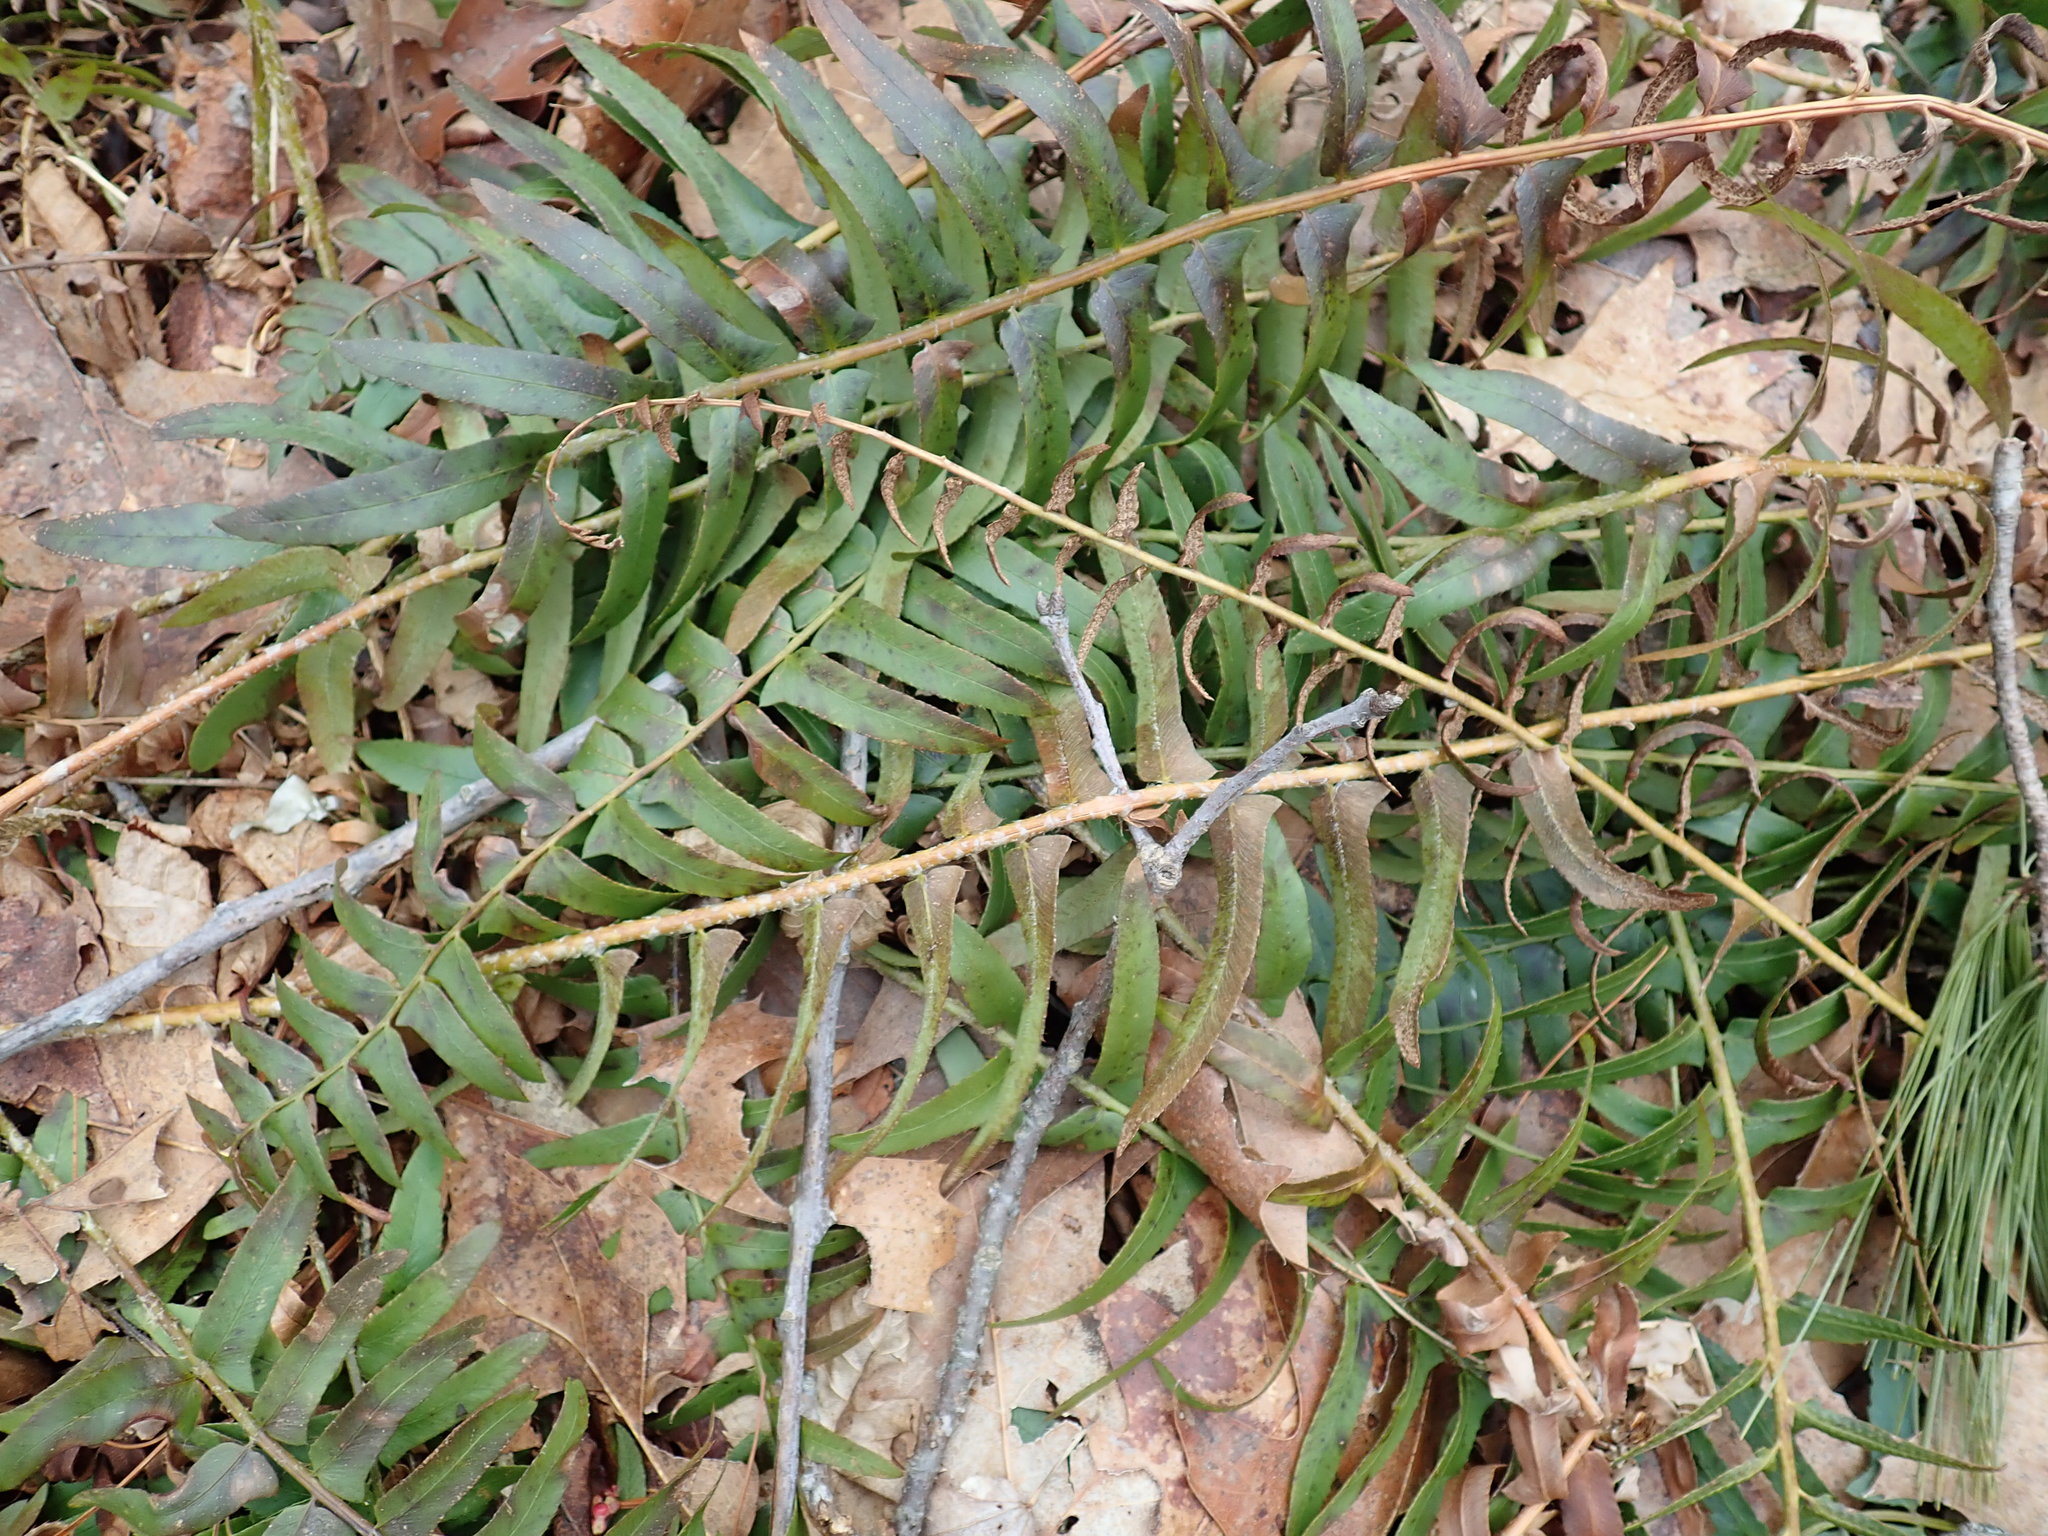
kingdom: Plantae
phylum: Tracheophyta
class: Polypodiopsida
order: Polypodiales
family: Dryopteridaceae
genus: Polystichum
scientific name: Polystichum acrostichoides
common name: Christmas fern
